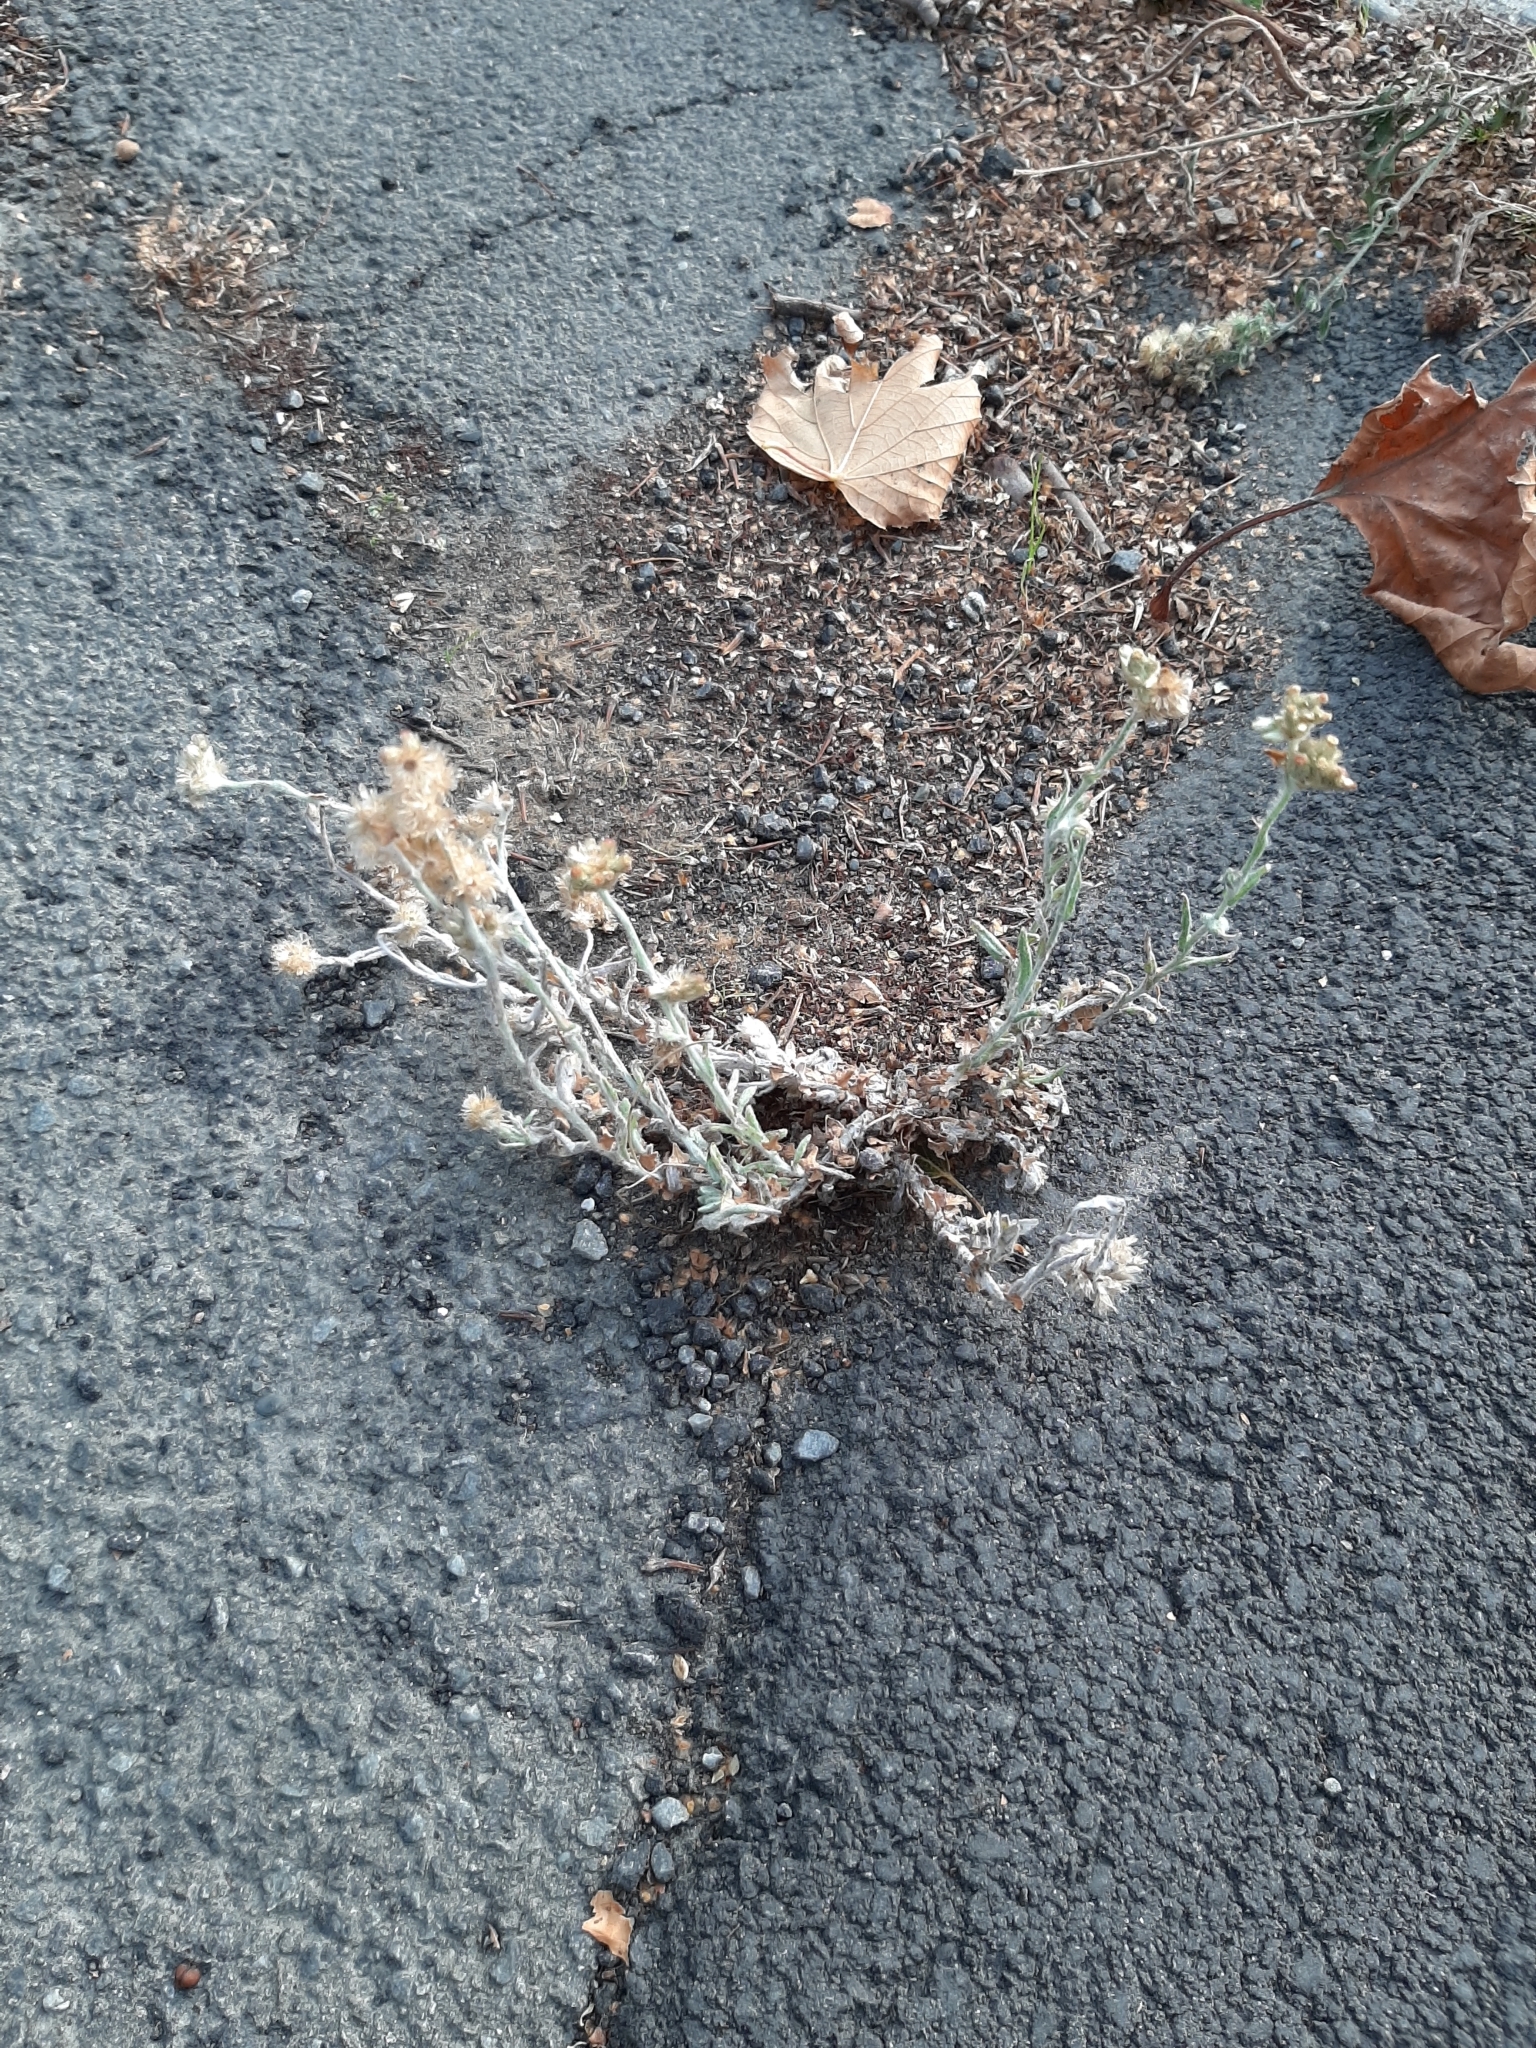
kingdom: Plantae
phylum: Tracheophyta
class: Magnoliopsida
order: Asterales
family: Asteraceae
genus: Helichrysum
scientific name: Helichrysum luteoalbum
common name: Daisy
